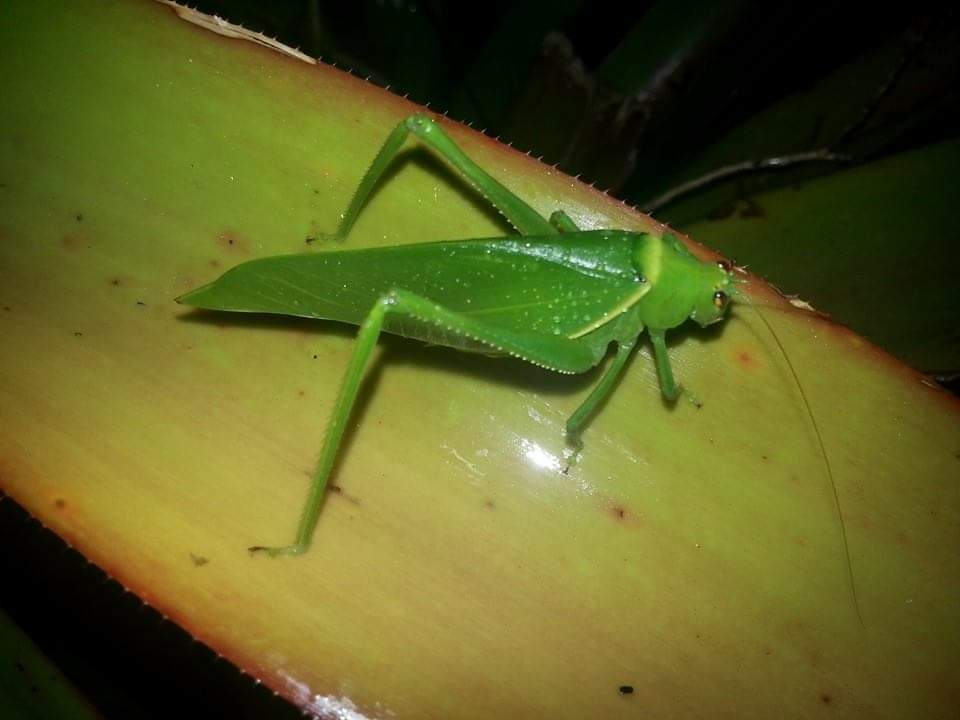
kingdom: Animalia
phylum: Arthropoda
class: Insecta
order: Orthoptera
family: Tettigoniidae
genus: Paracaedicia
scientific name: Paracaedicia serrata
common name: Serrated bush katydid
